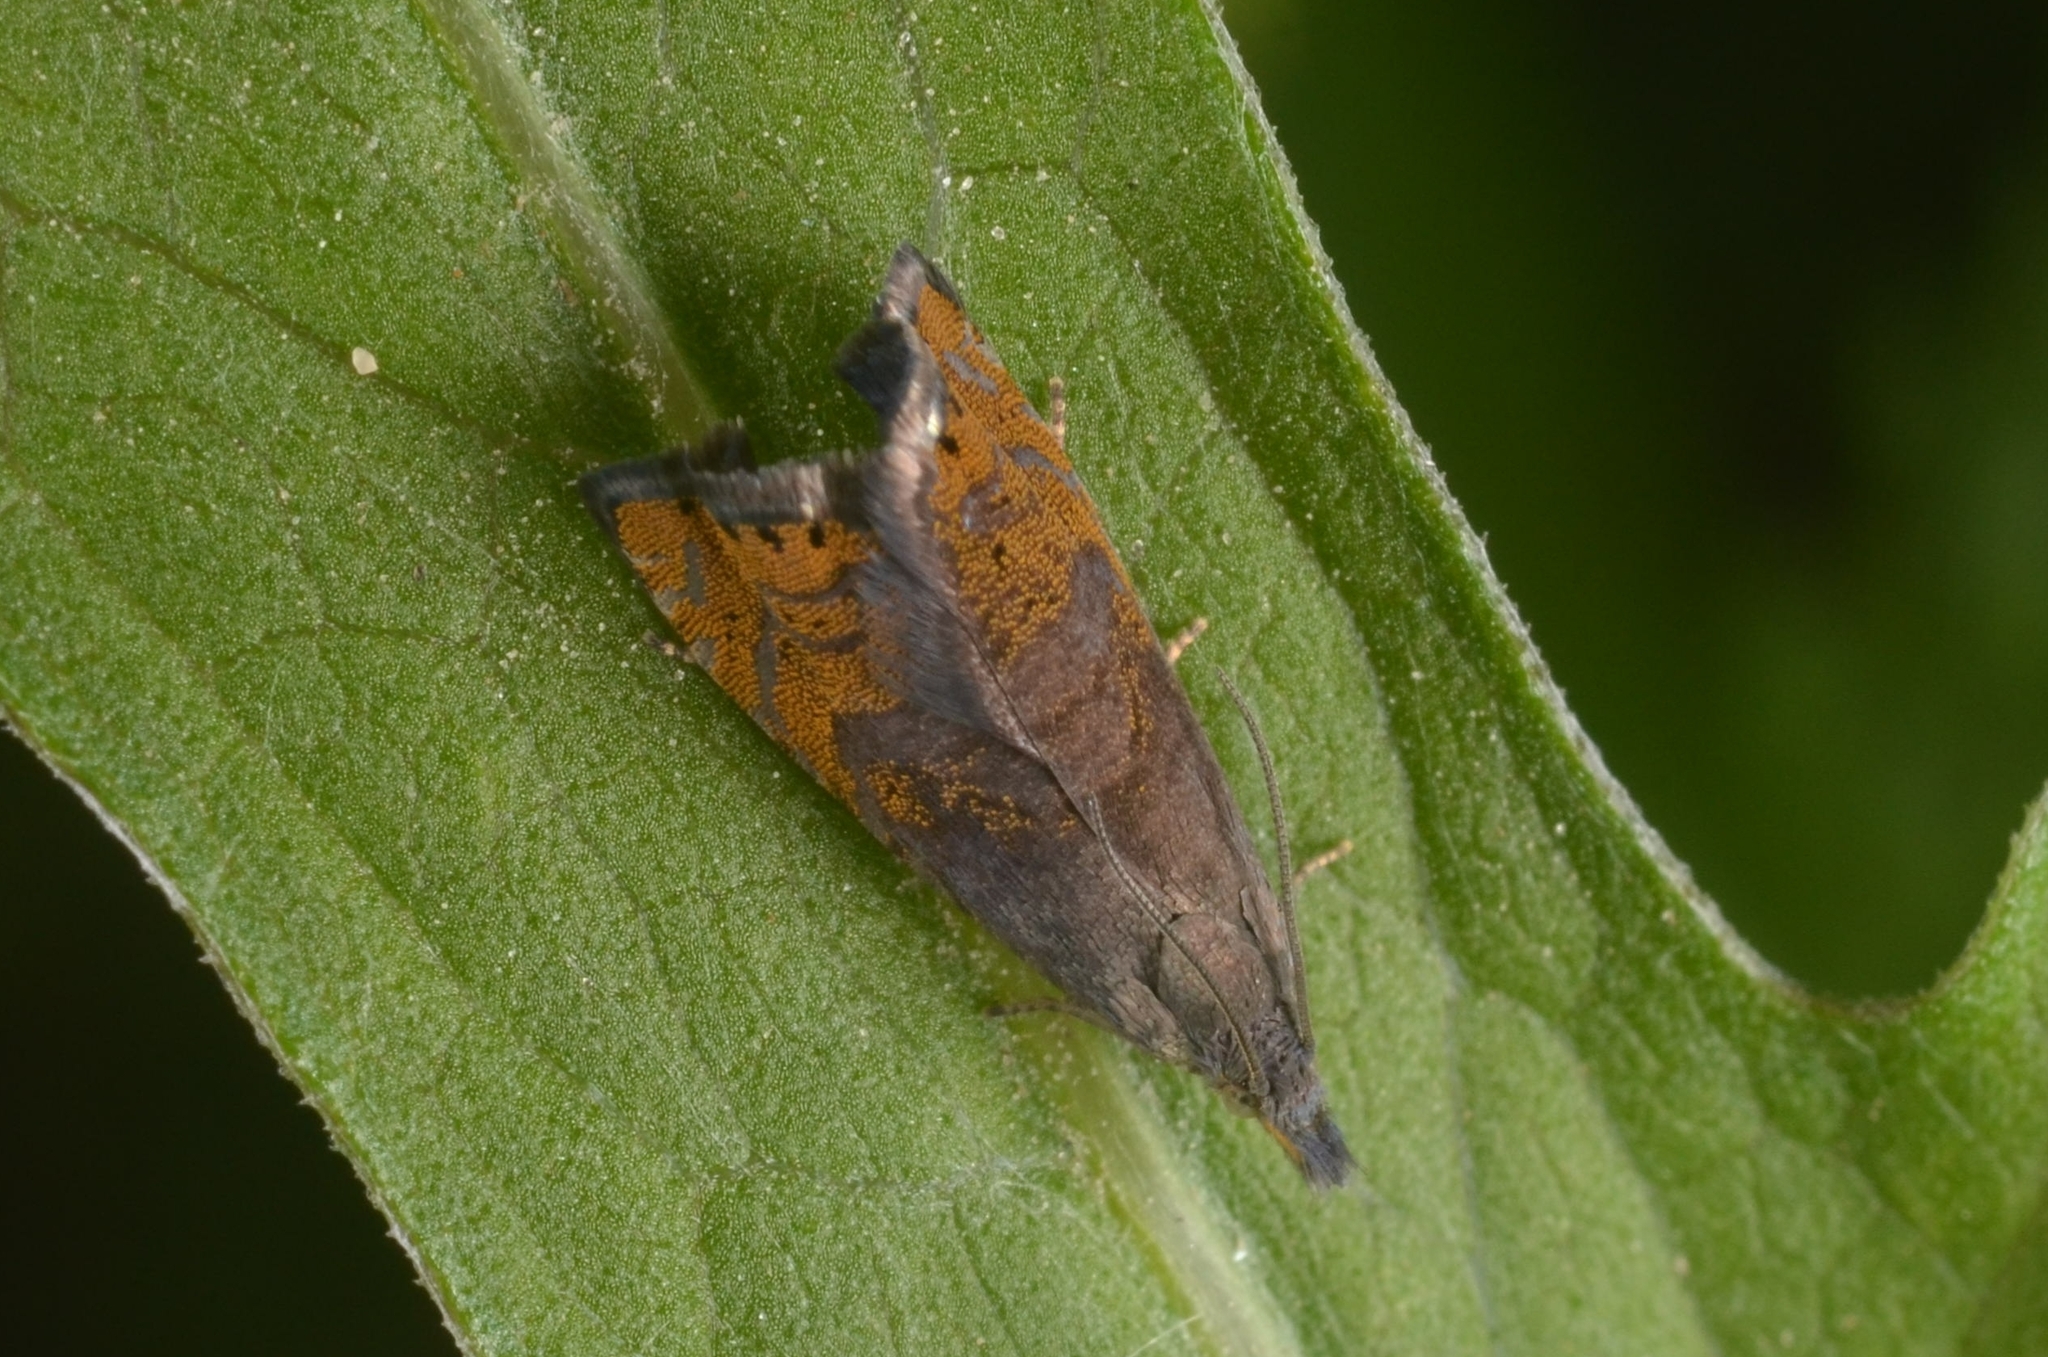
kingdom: Animalia
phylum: Arthropoda
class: Insecta
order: Lepidoptera
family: Tortricidae
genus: Dichrorampha
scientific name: Dichrorampha plumbana
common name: Lead-coloured drill
